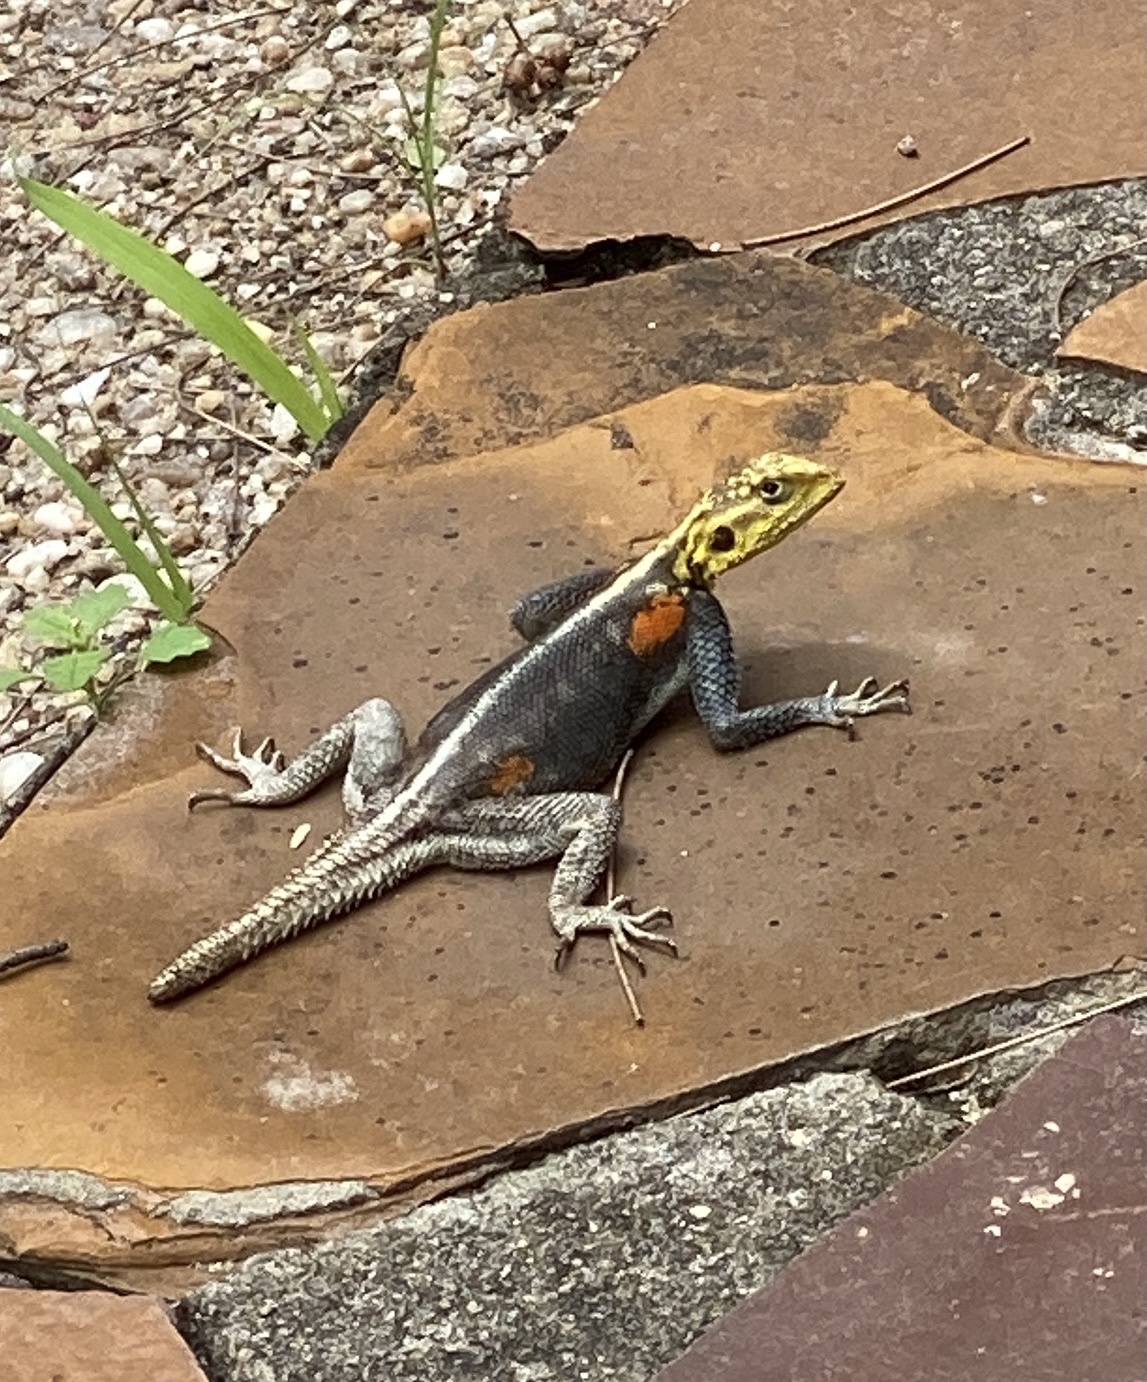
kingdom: Animalia
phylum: Chordata
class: Squamata
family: Agamidae
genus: Agama
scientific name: Agama planiceps
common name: Namib rock agama
